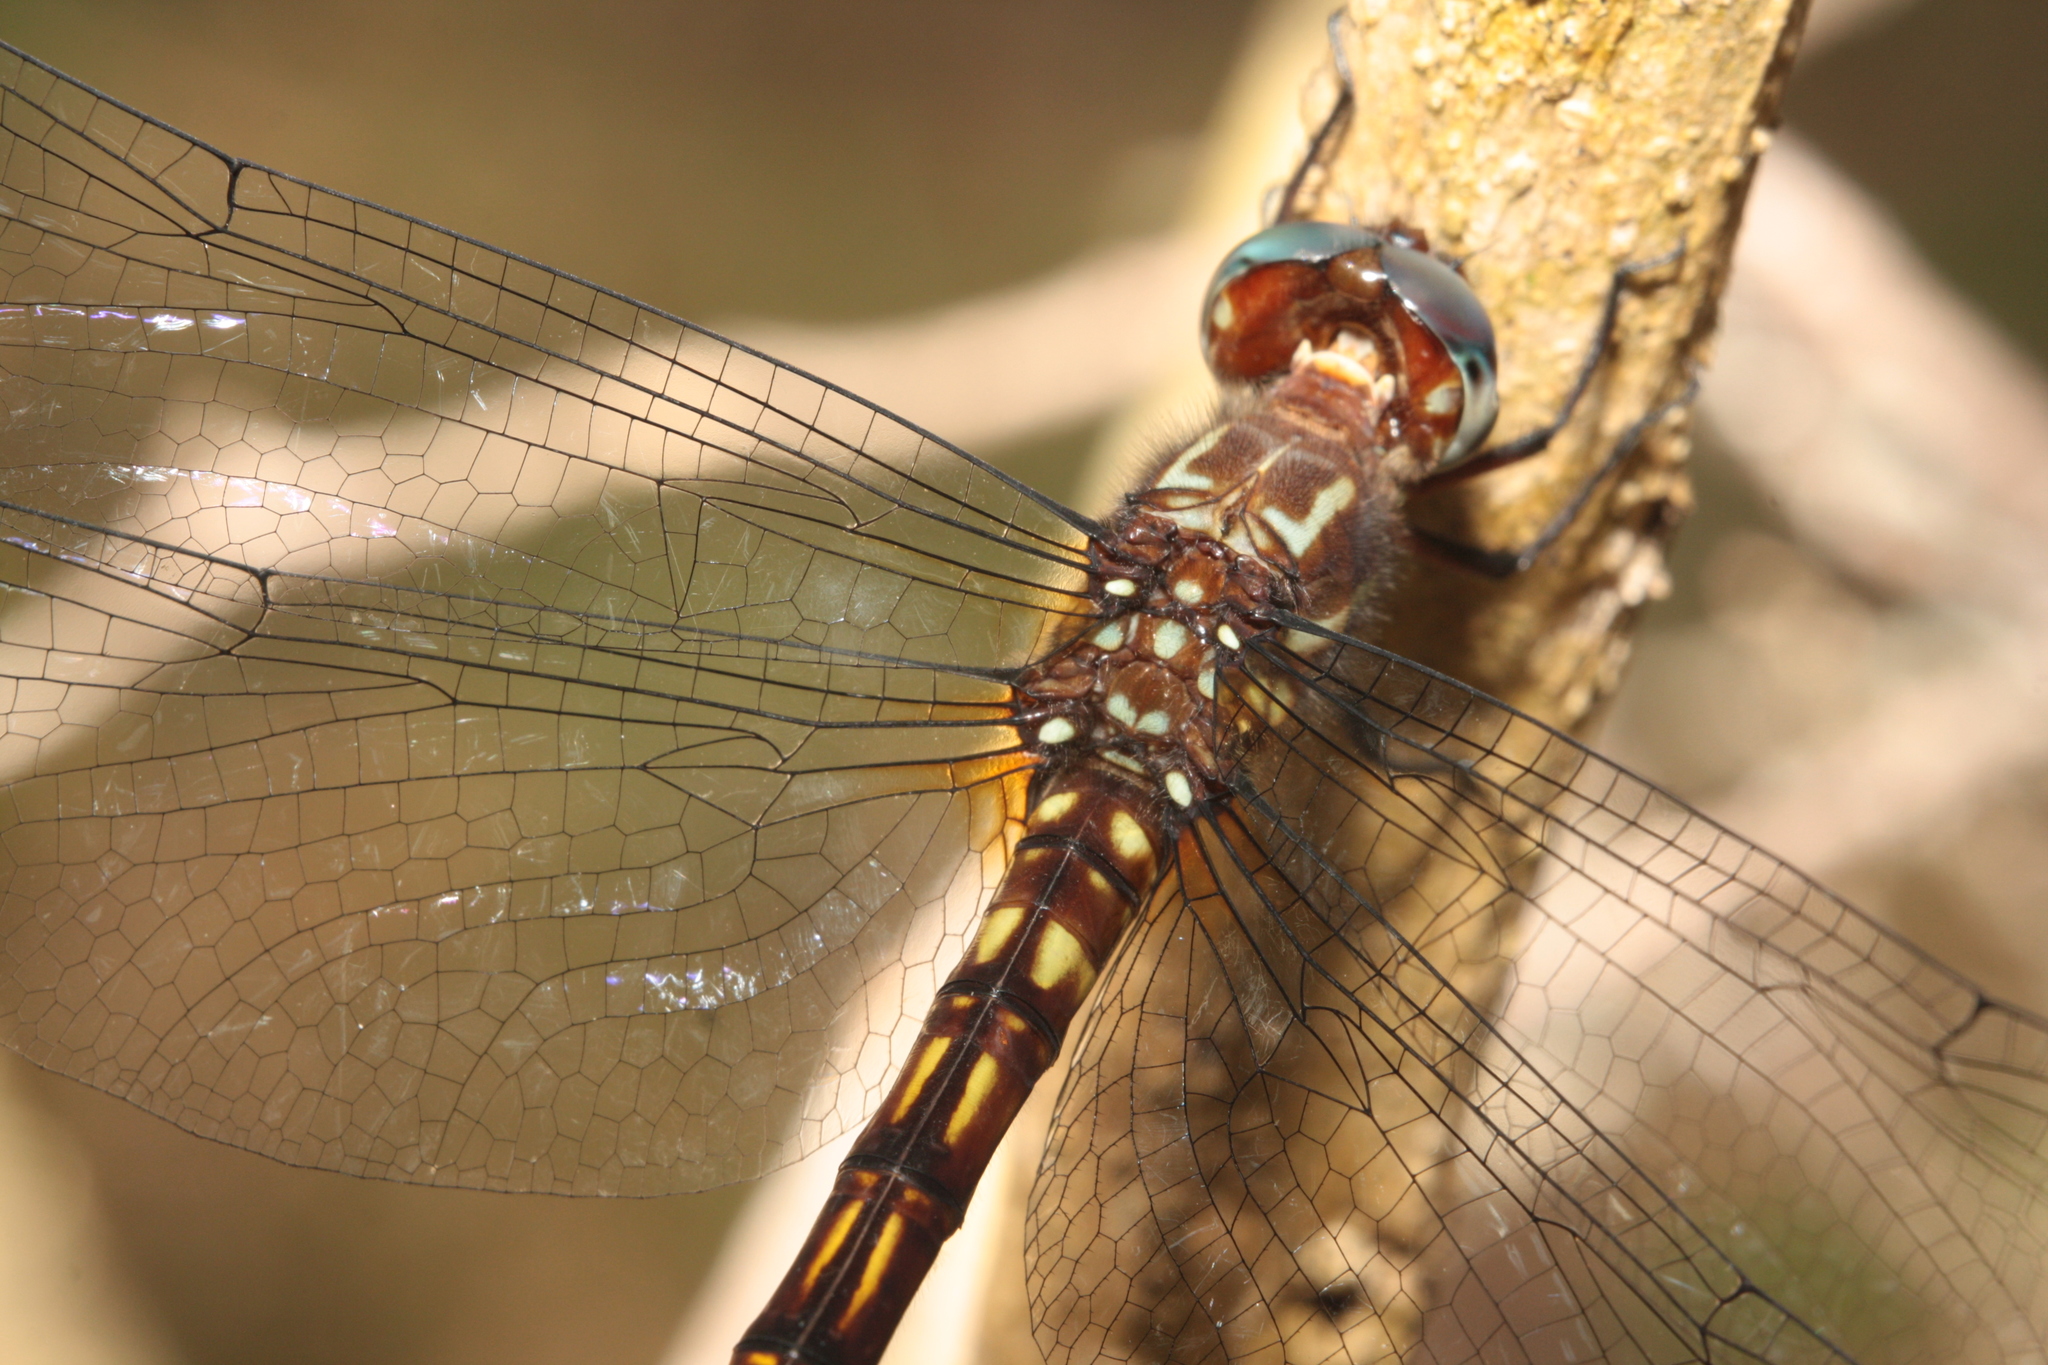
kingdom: Animalia
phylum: Arthropoda
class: Insecta
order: Odonata
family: Libellulidae
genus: Brechmorhoga
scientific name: Brechmorhoga rapax
